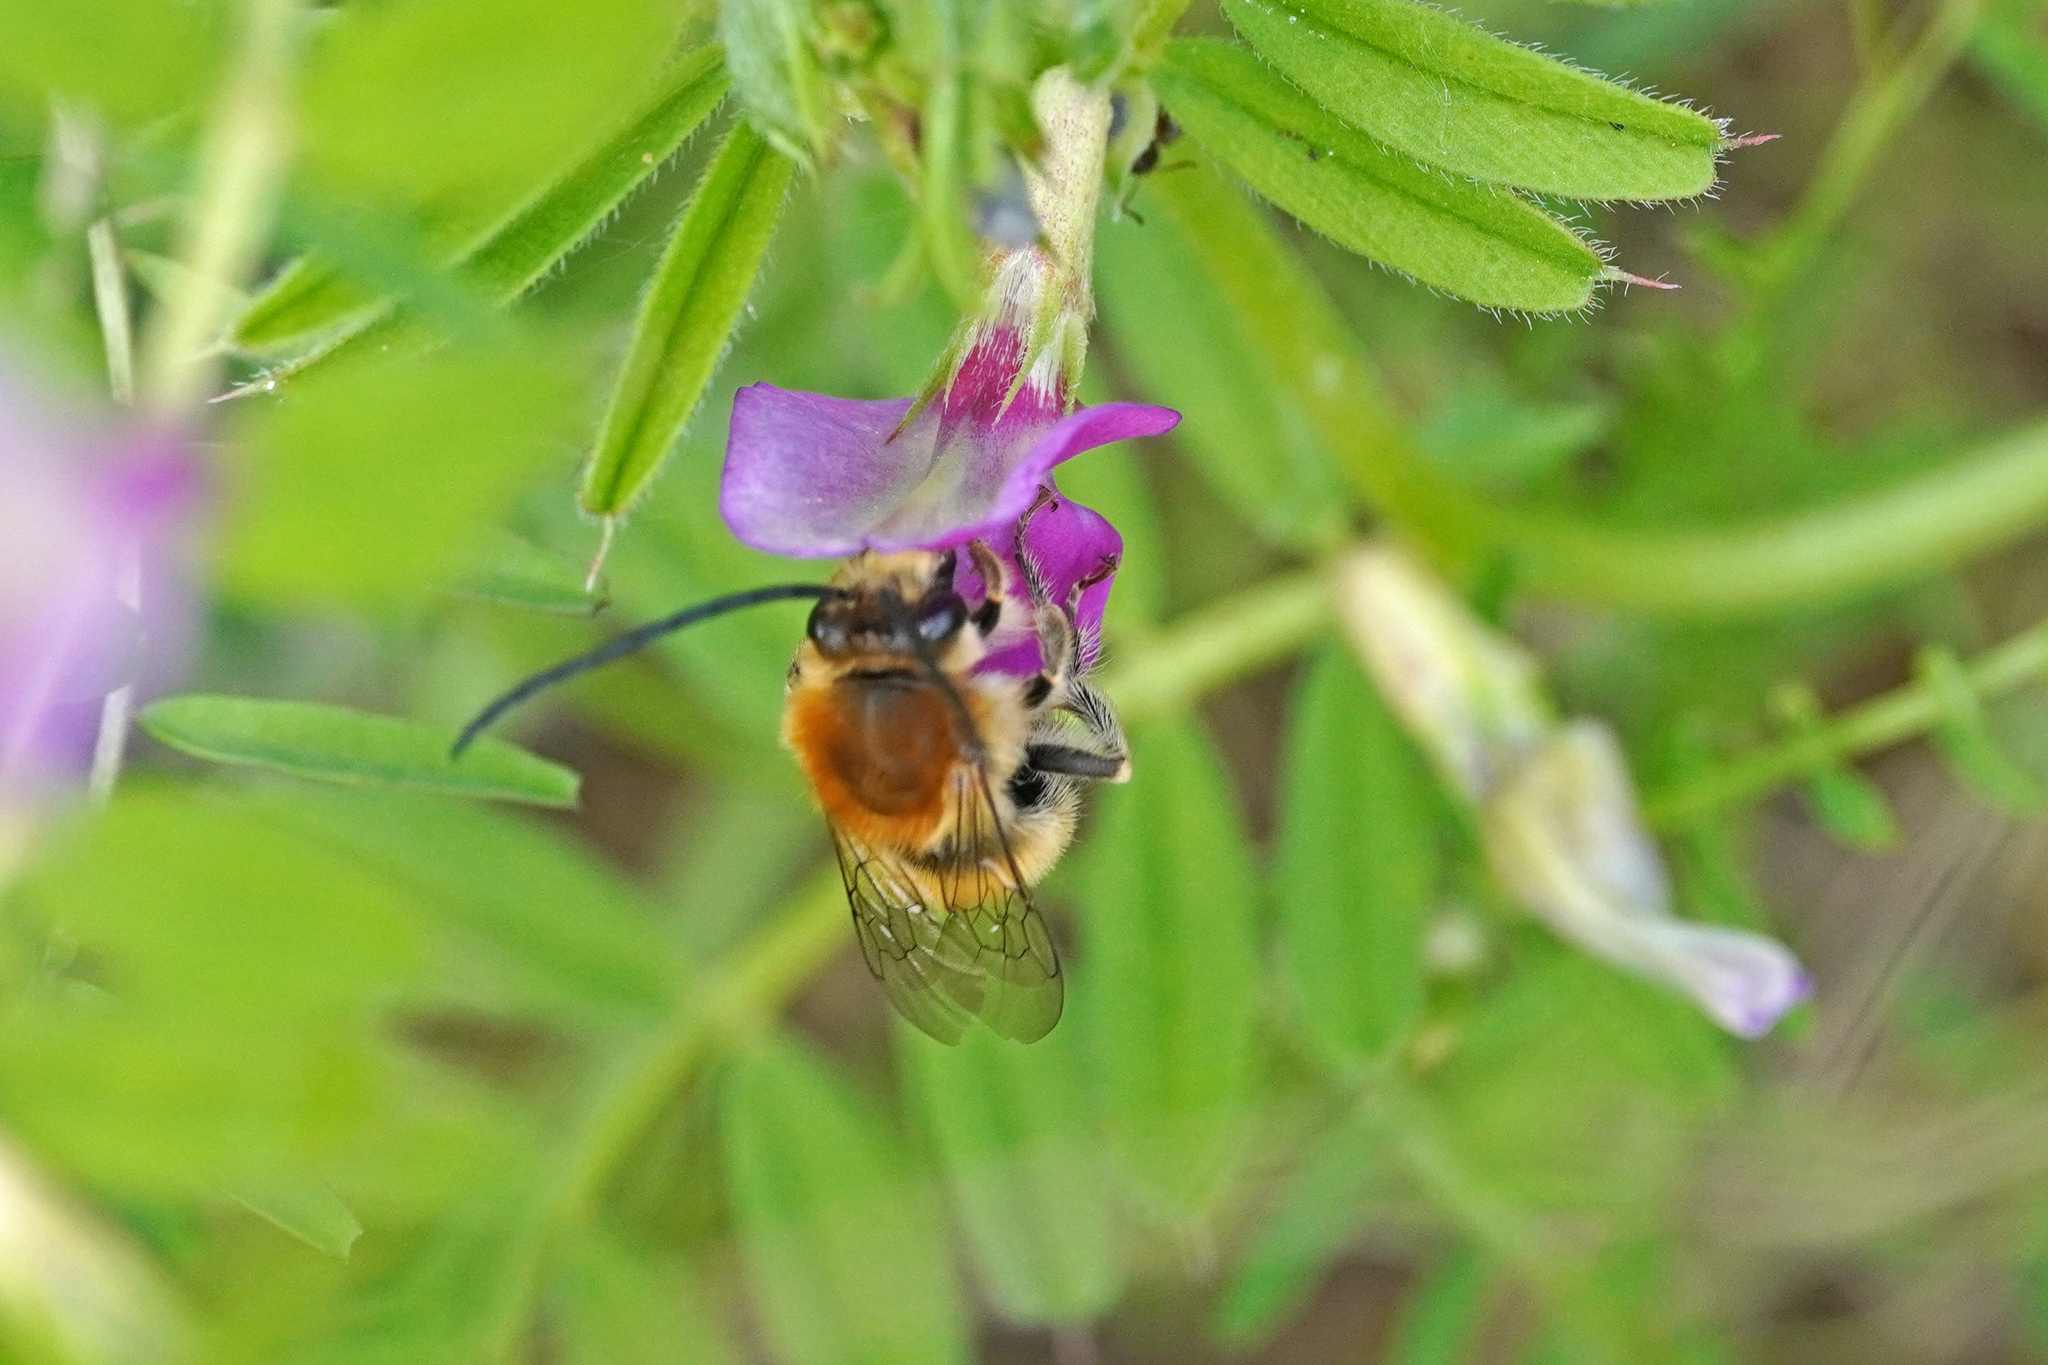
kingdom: Animalia
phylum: Arthropoda
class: Insecta
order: Hymenoptera
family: Apidae
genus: Eucera
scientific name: Eucera nigrescens
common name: Tuberculate long-horned bee
